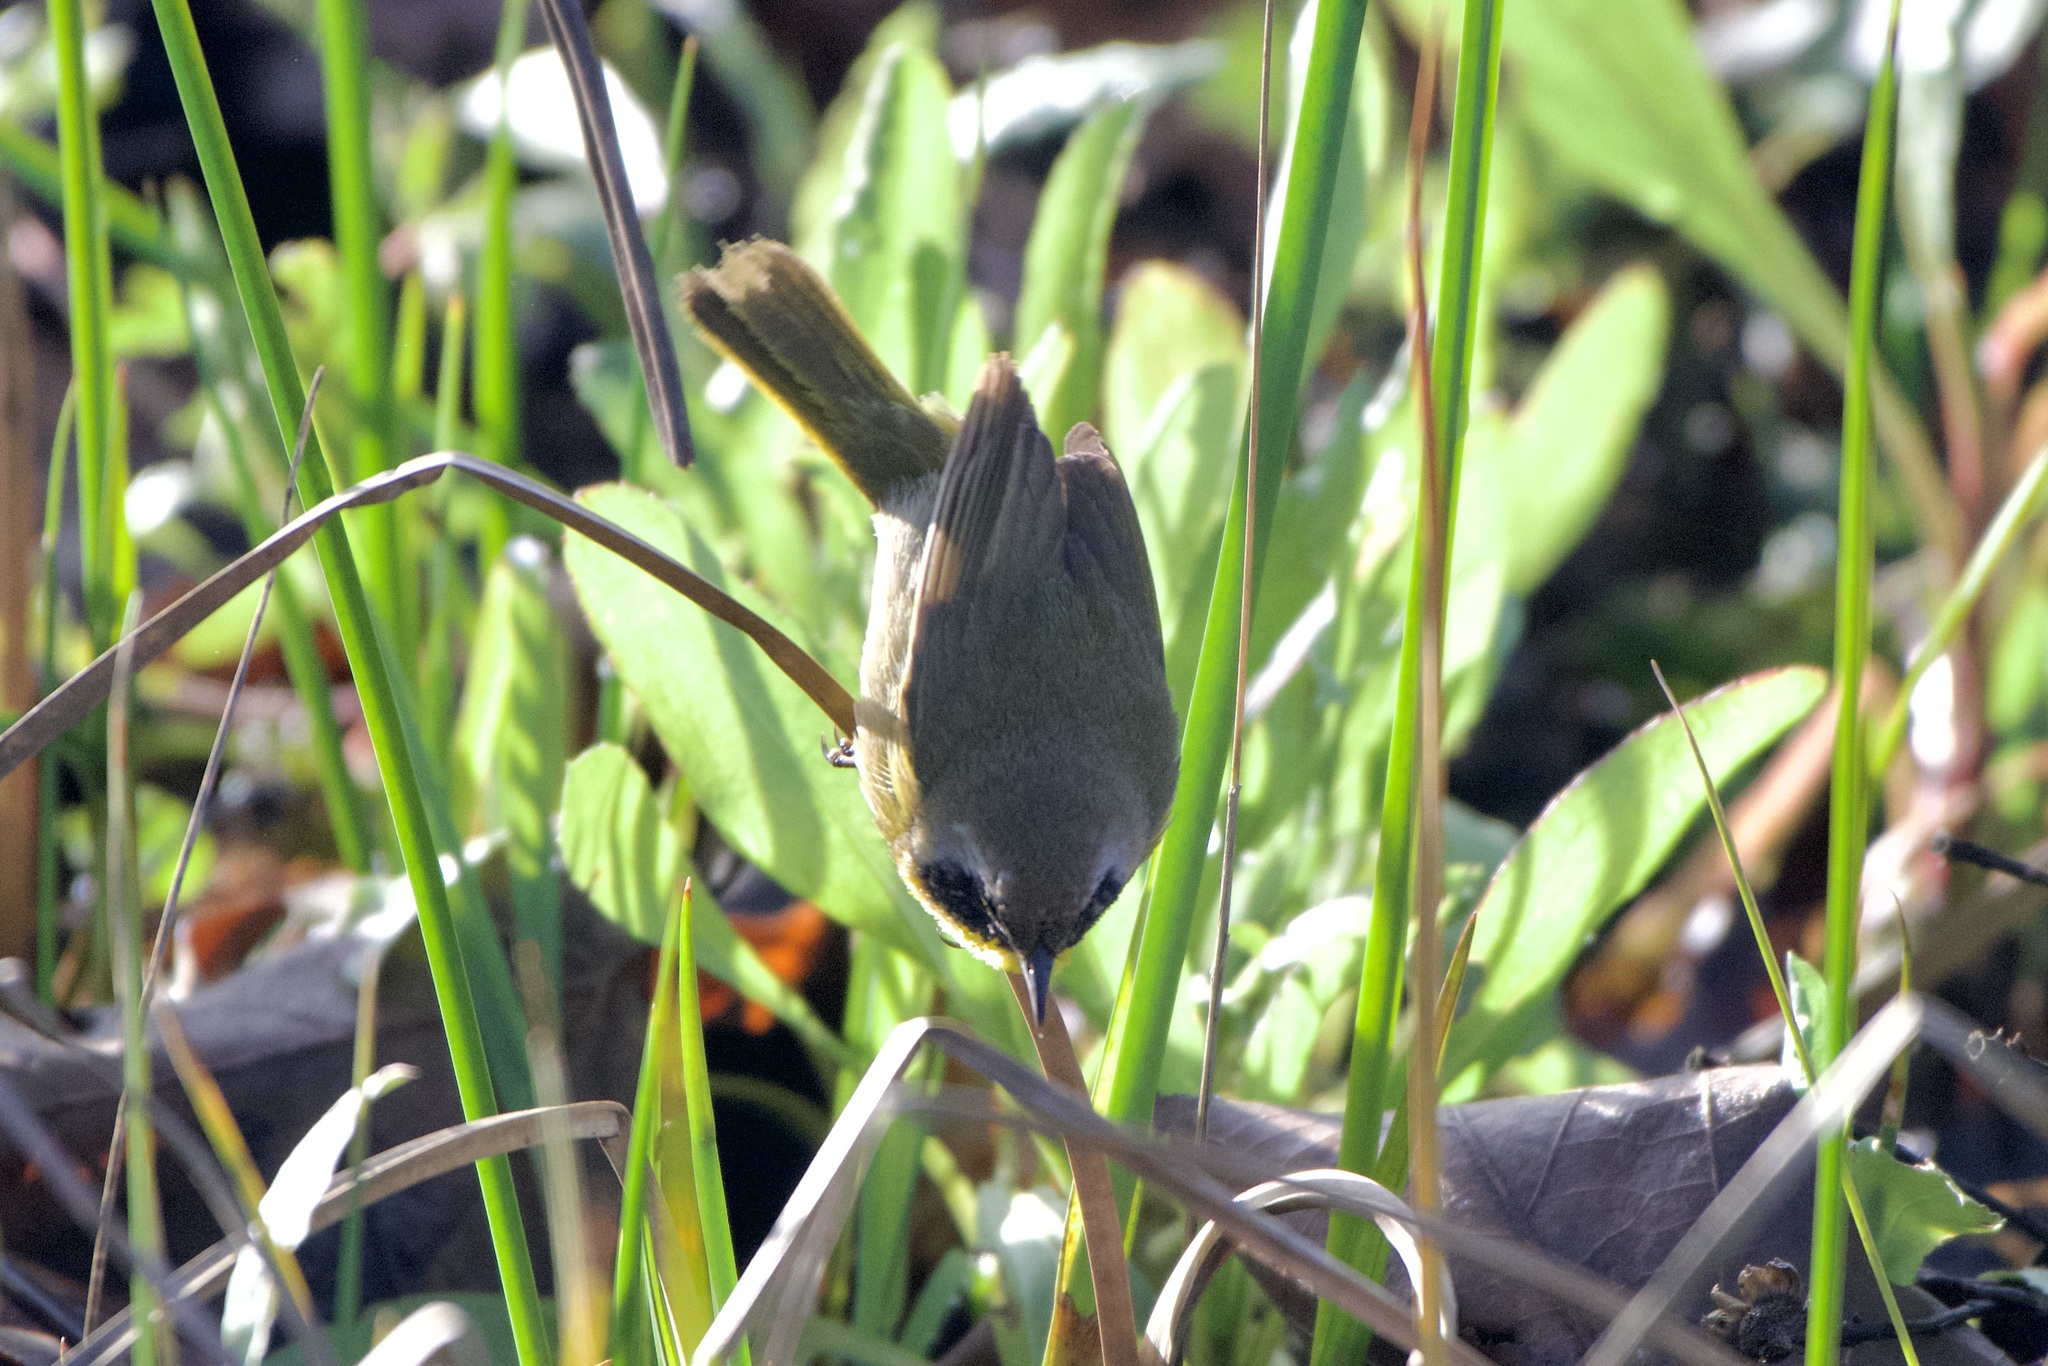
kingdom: Animalia
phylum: Chordata
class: Aves
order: Passeriformes
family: Parulidae
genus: Geothlypis
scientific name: Geothlypis trichas
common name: Common yellowthroat
